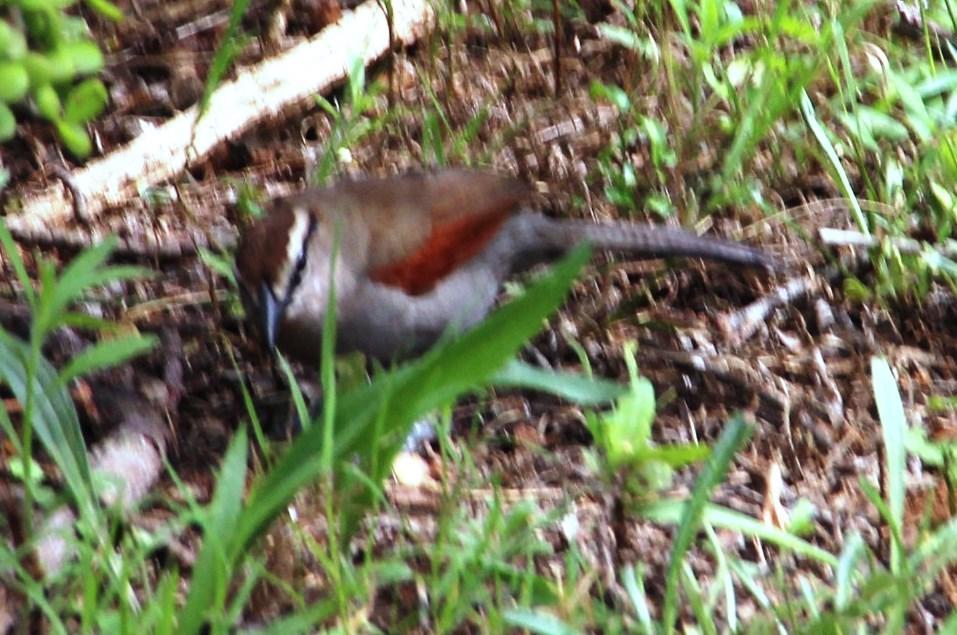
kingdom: Animalia
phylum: Chordata
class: Aves
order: Passeriformes
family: Malaconotidae
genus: Tchagra
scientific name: Tchagra tchagra
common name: Southern tchagra
